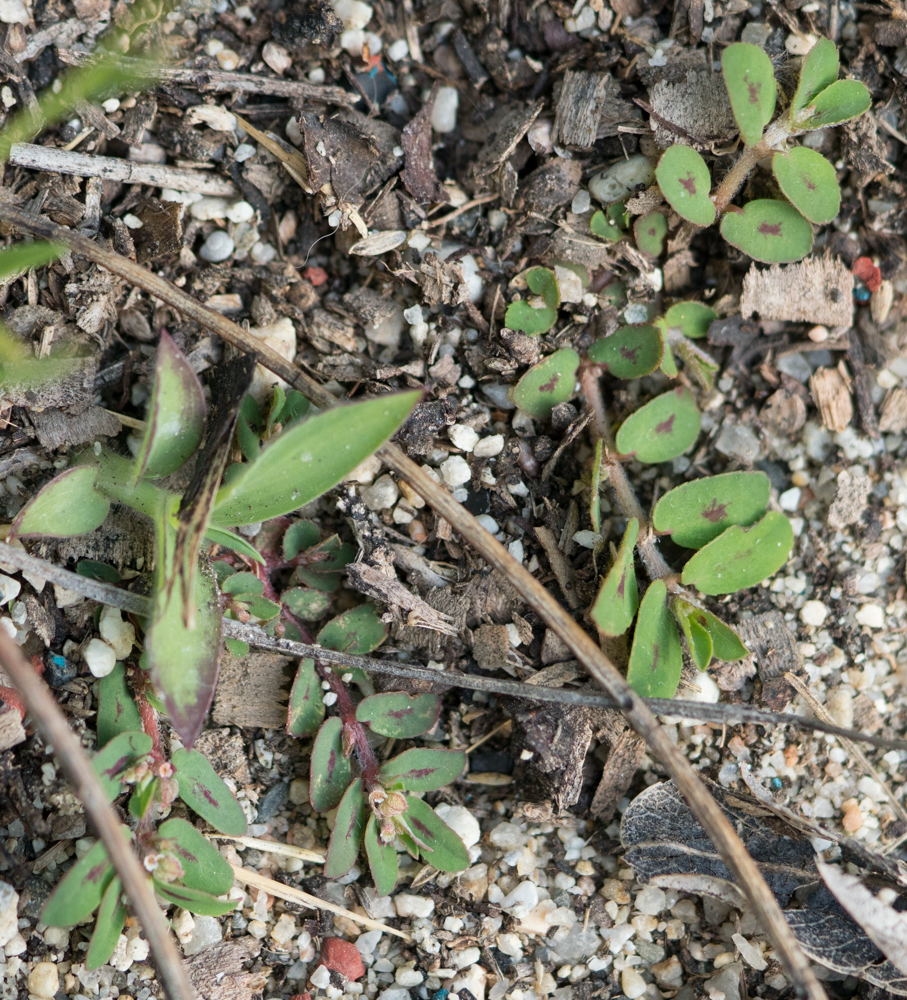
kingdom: Plantae
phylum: Tracheophyta
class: Magnoliopsida
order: Malpighiales
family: Euphorbiaceae
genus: Euphorbia
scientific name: Euphorbia maculata
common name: Spotted spurge
